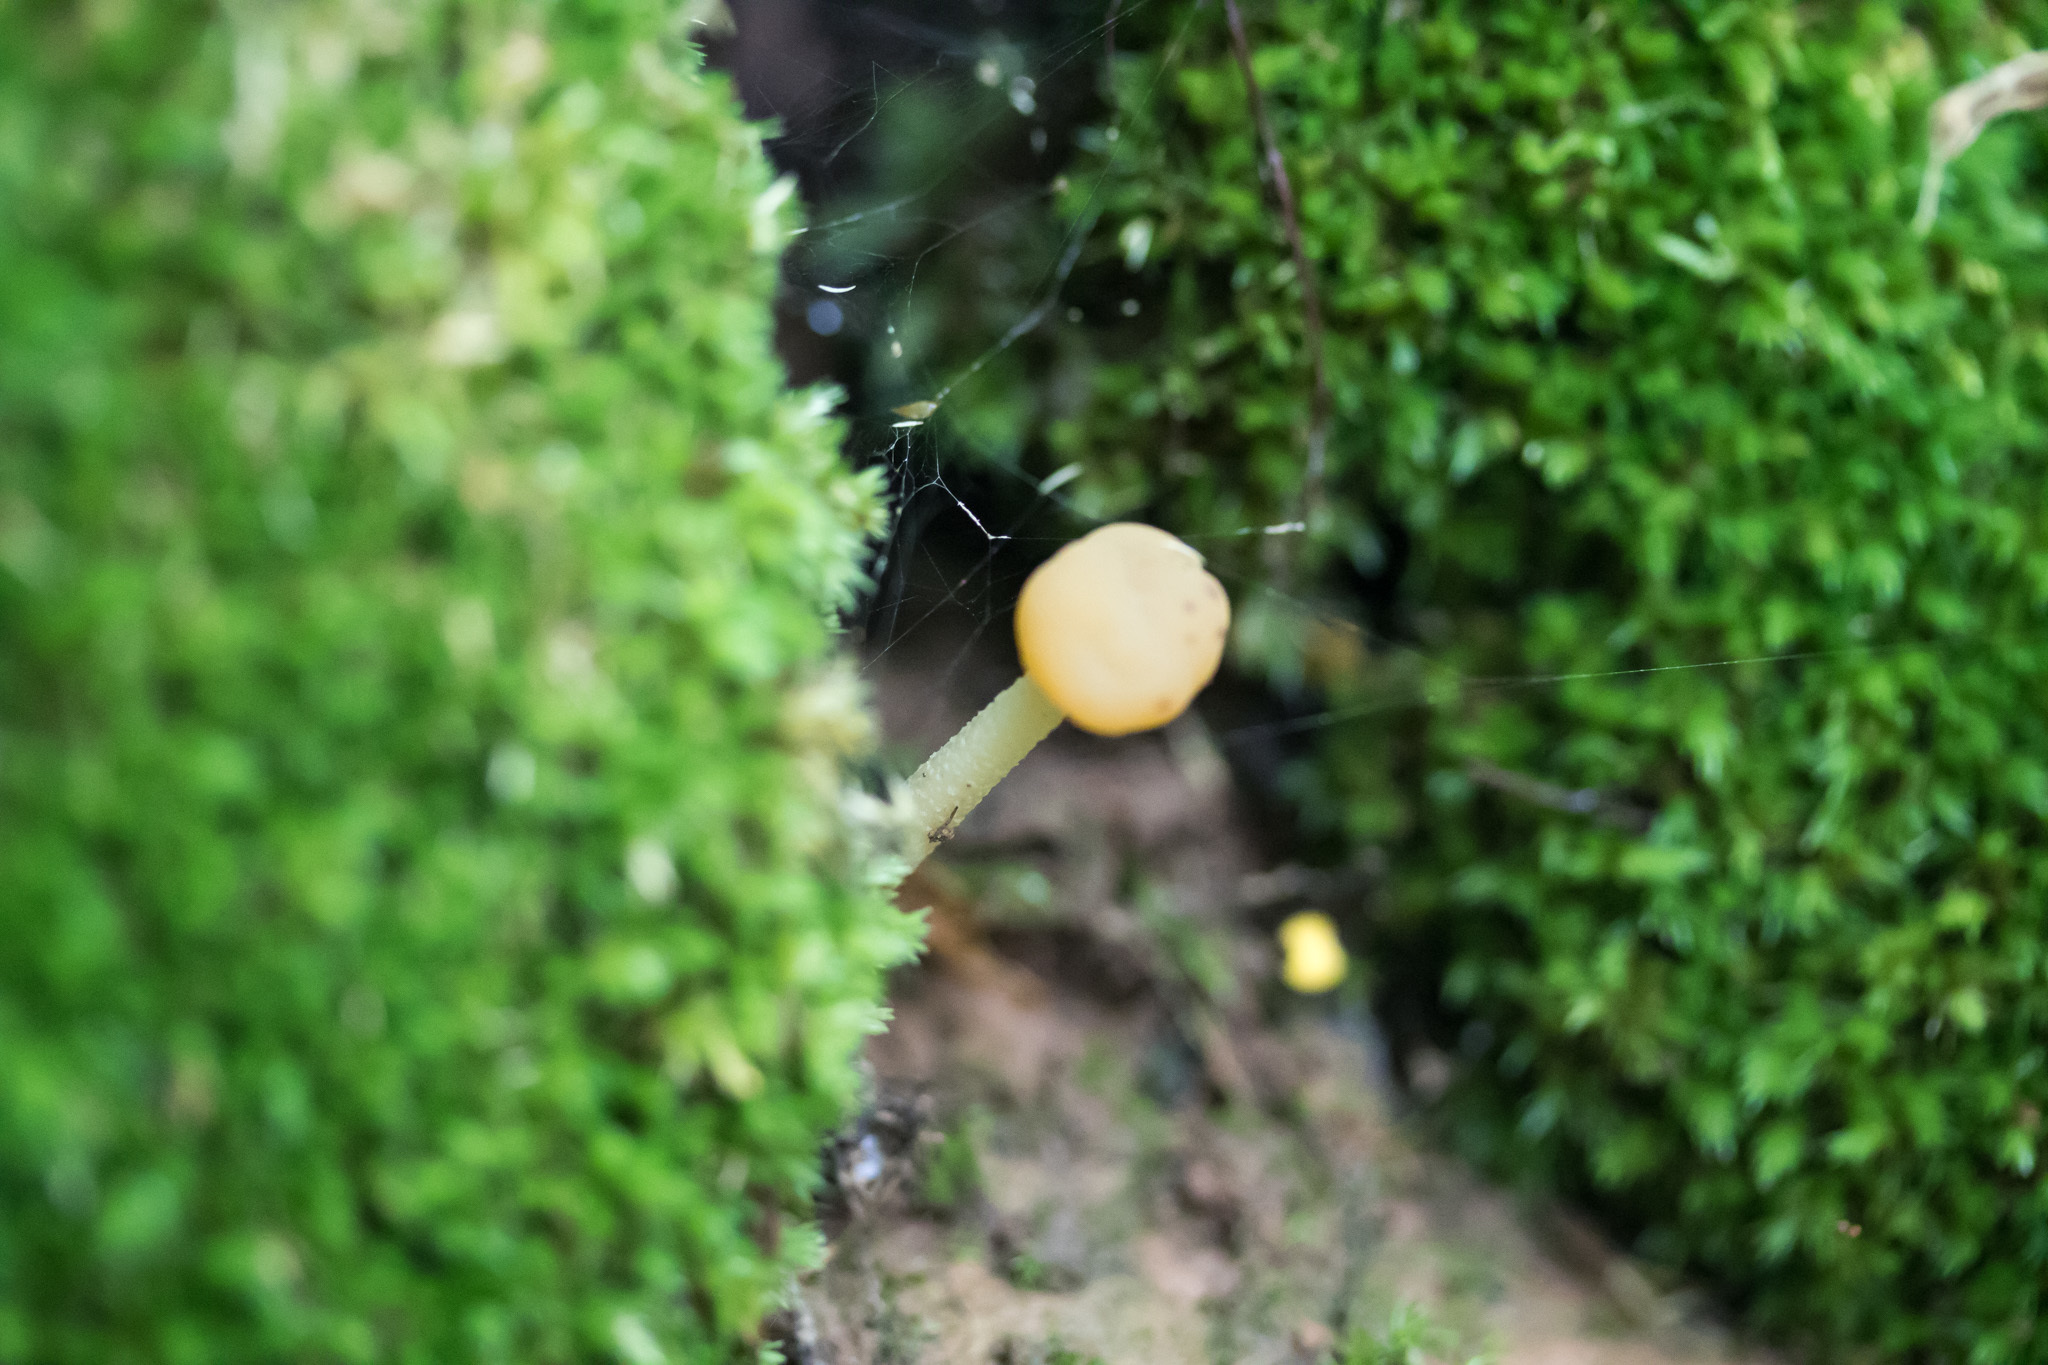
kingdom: Fungi
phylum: Ascomycota
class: Leotiomycetes
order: Leotiales
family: Leotiaceae
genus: Leotia
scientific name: Leotia lubrica
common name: Jellybaby
